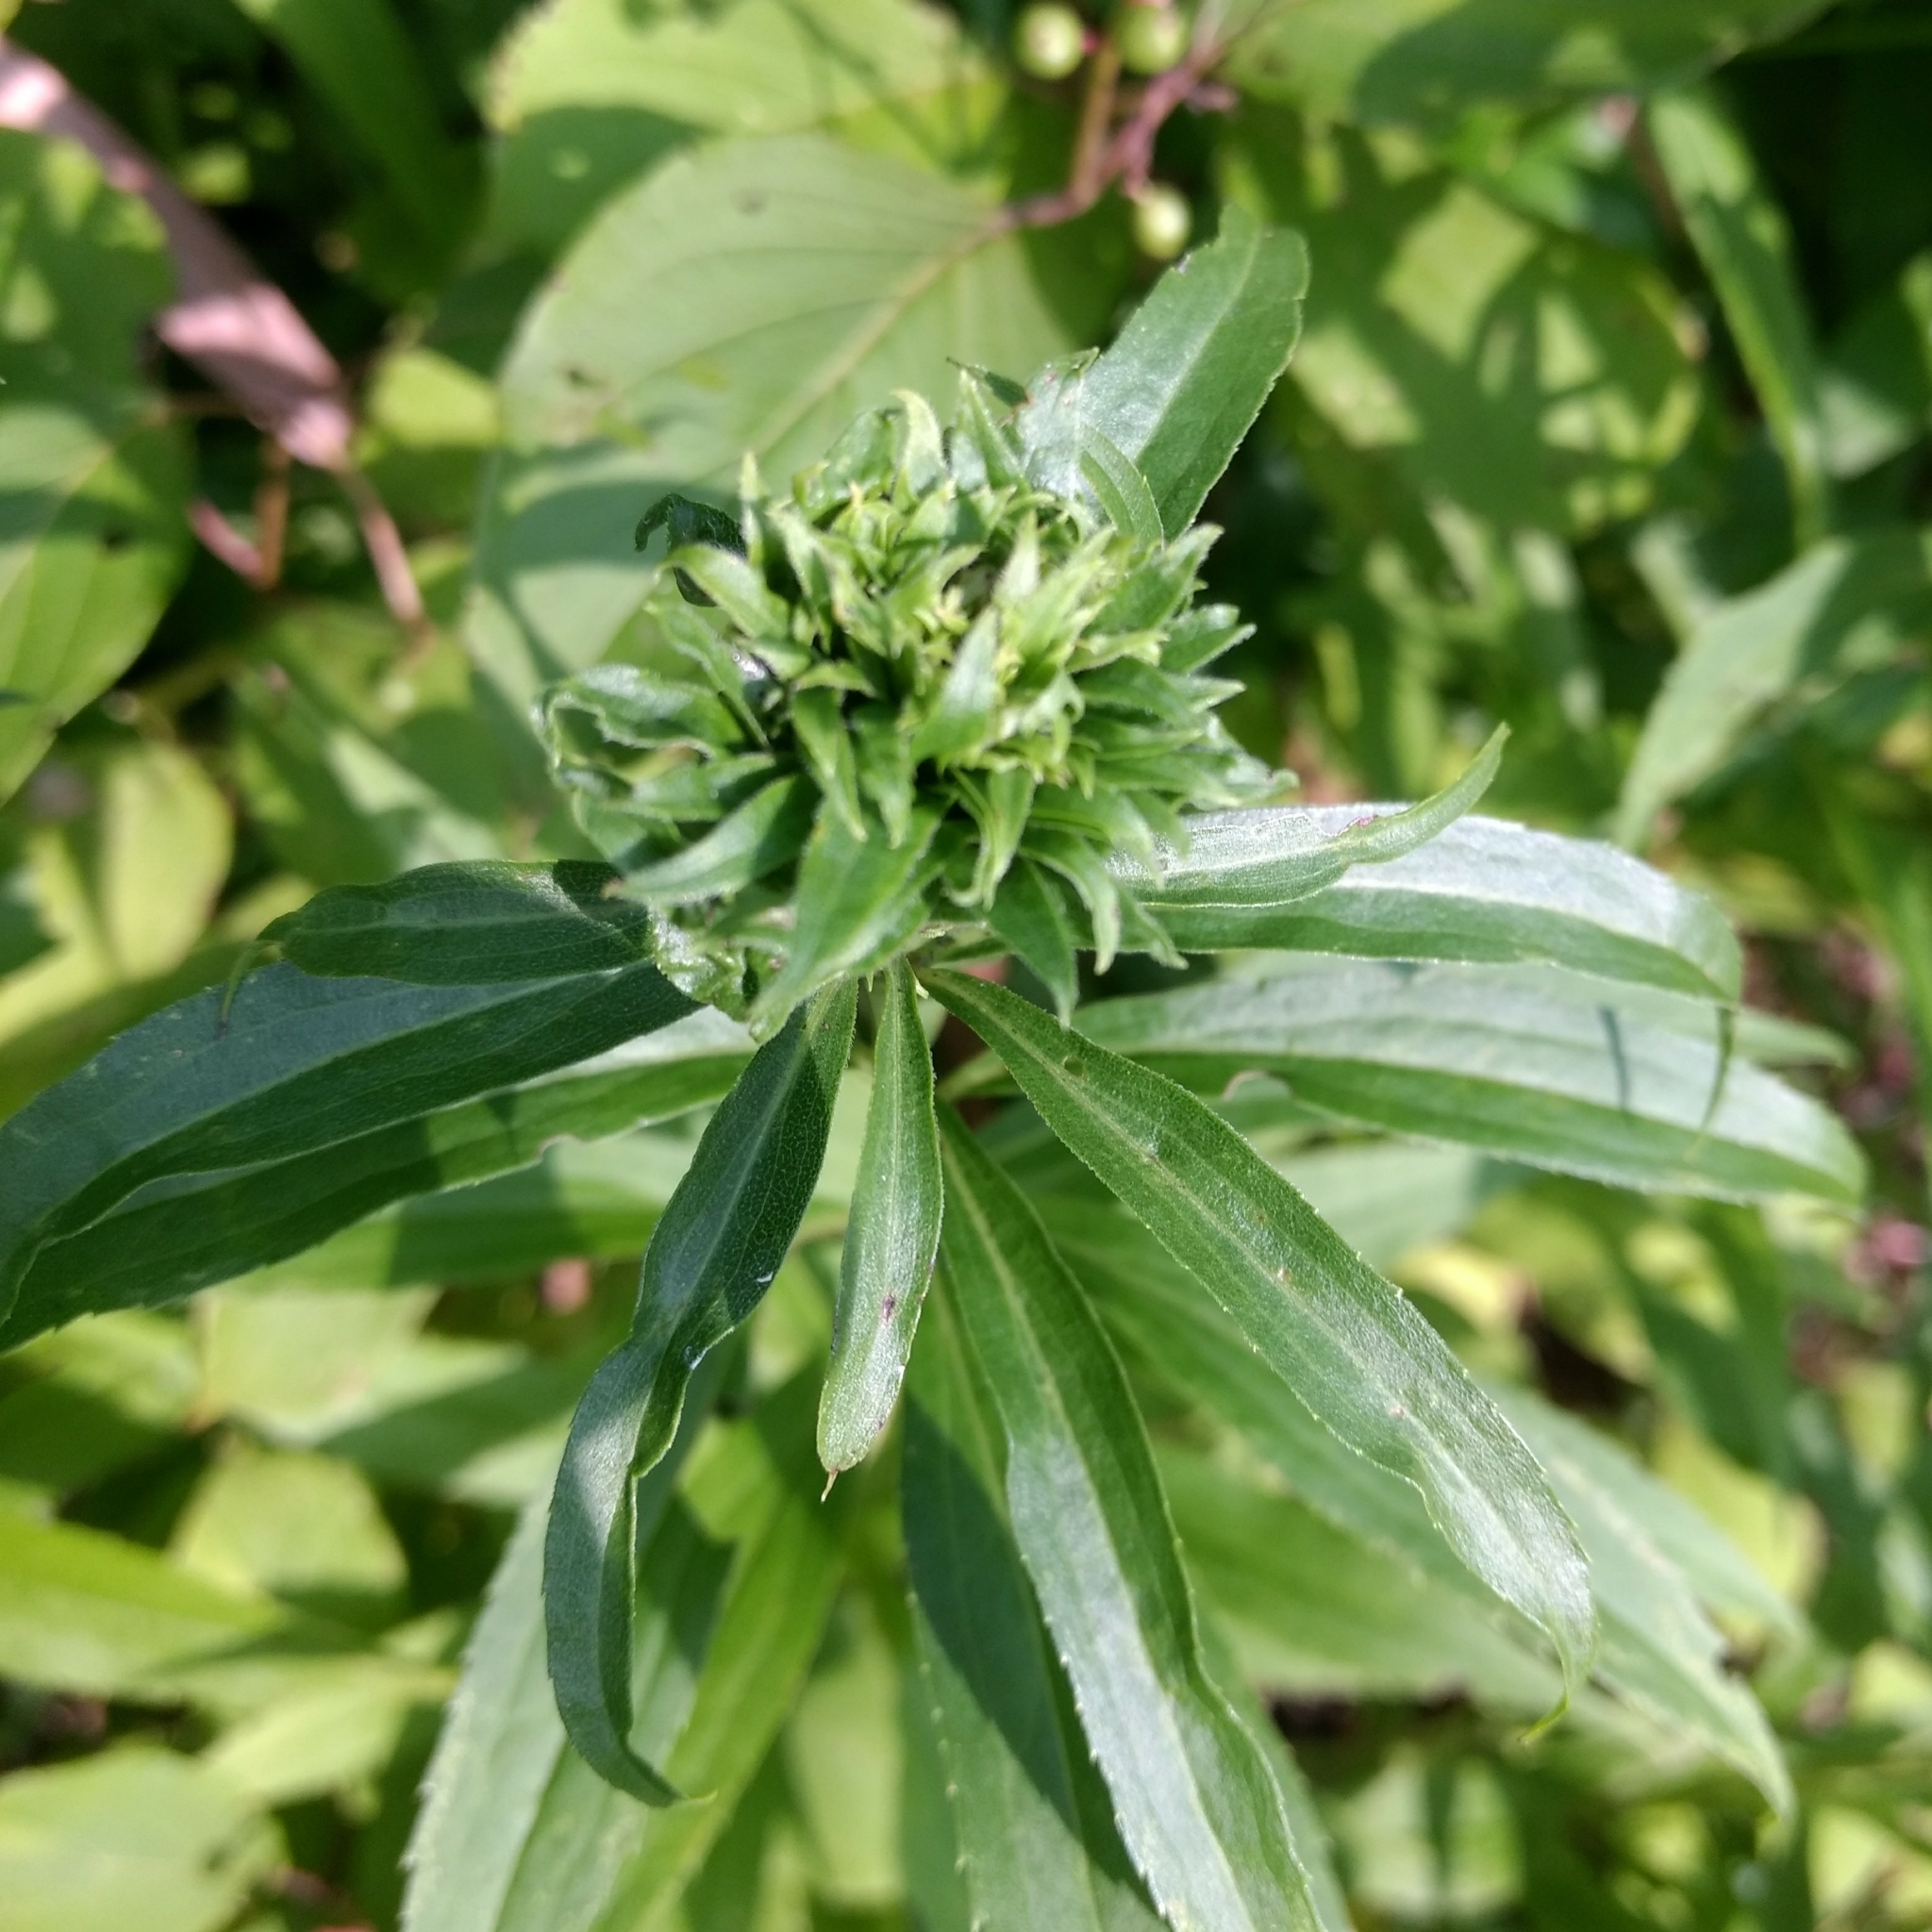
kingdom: Animalia
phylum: Arthropoda
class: Insecta
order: Diptera
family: Cecidomyiidae
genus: Rhopalomyia
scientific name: Rhopalomyia solidaginis
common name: Goldenrod bunch gall midge
